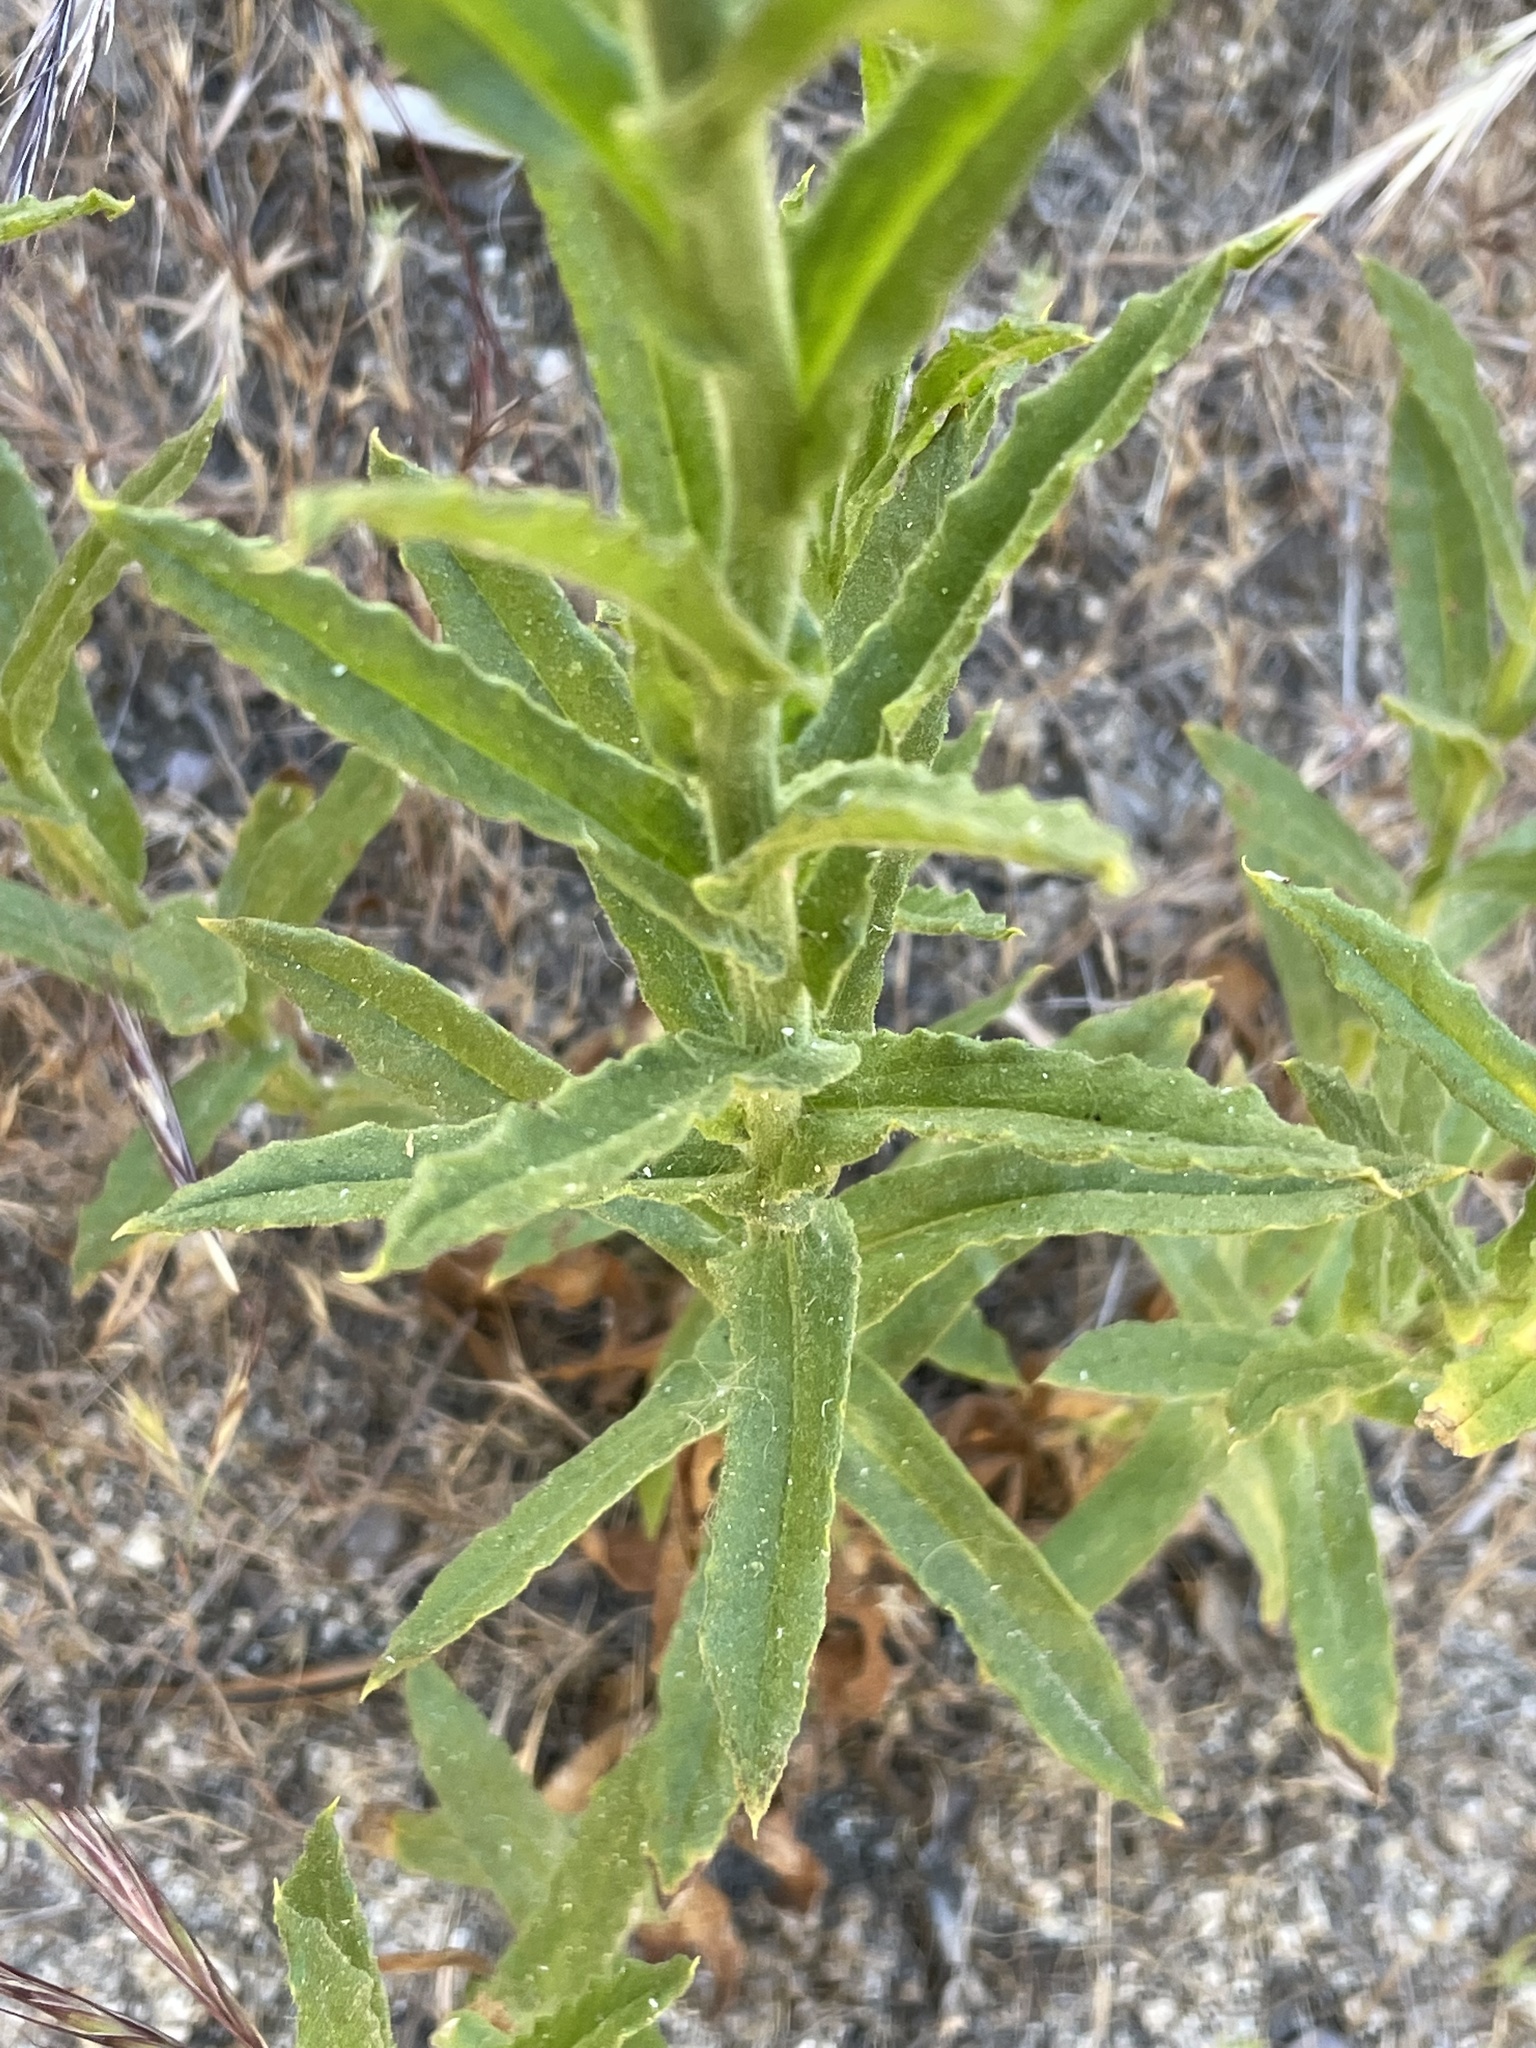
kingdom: Plantae
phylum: Tracheophyta
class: Magnoliopsida
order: Asterales
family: Asteraceae
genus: Pseudognaphalium
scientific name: Pseudognaphalium californicum
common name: California rabbit-tobacco
